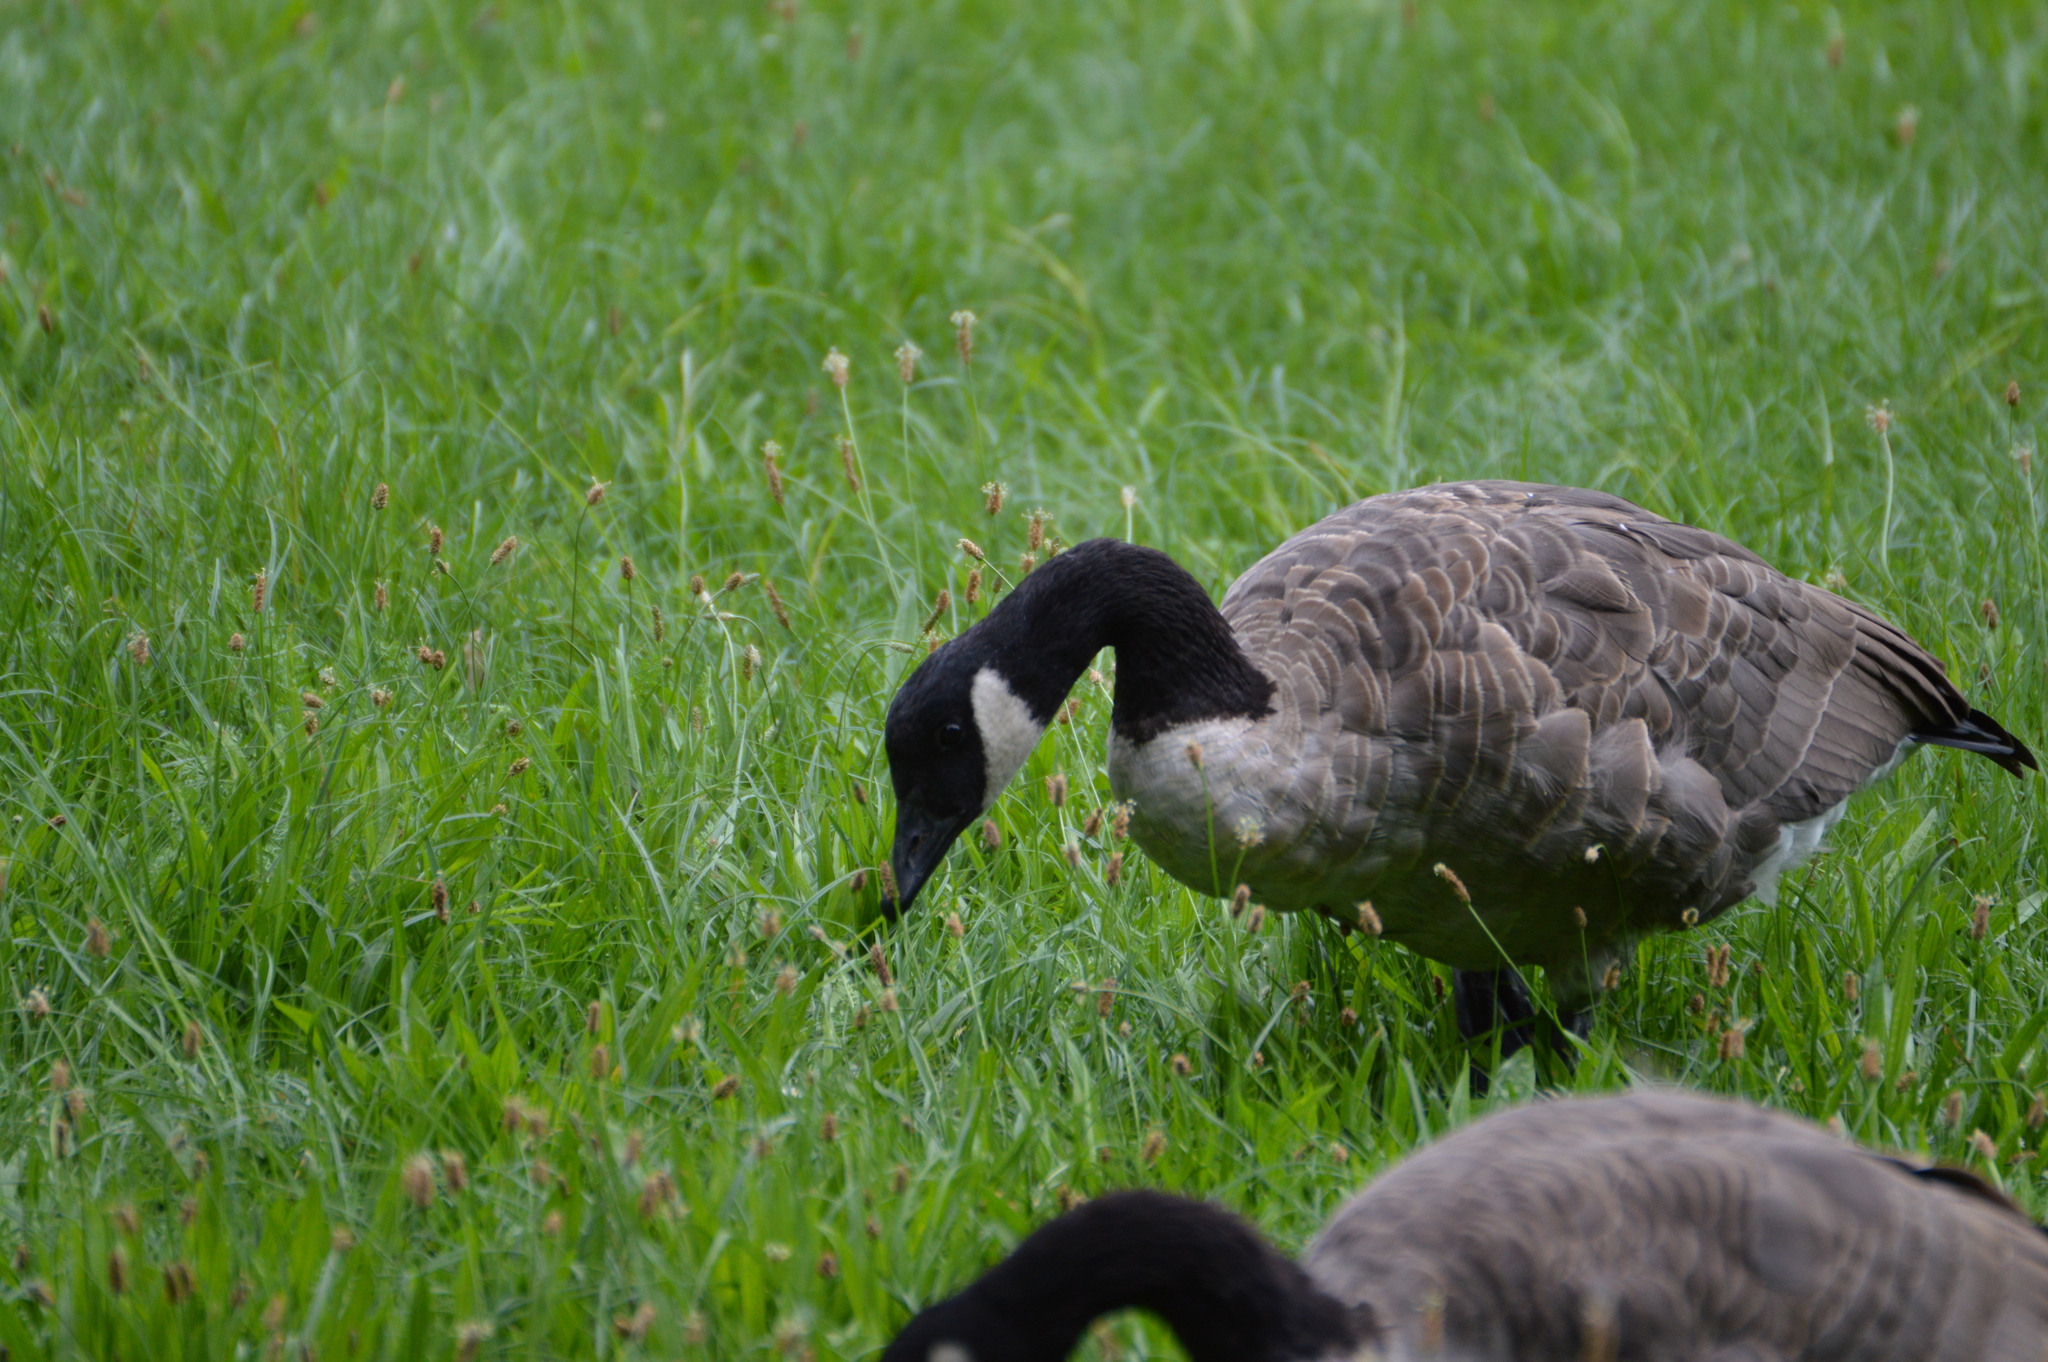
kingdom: Animalia
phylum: Chordata
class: Aves
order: Anseriformes
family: Anatidae
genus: Branta
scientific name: Branta canadensis
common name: Canada goose
